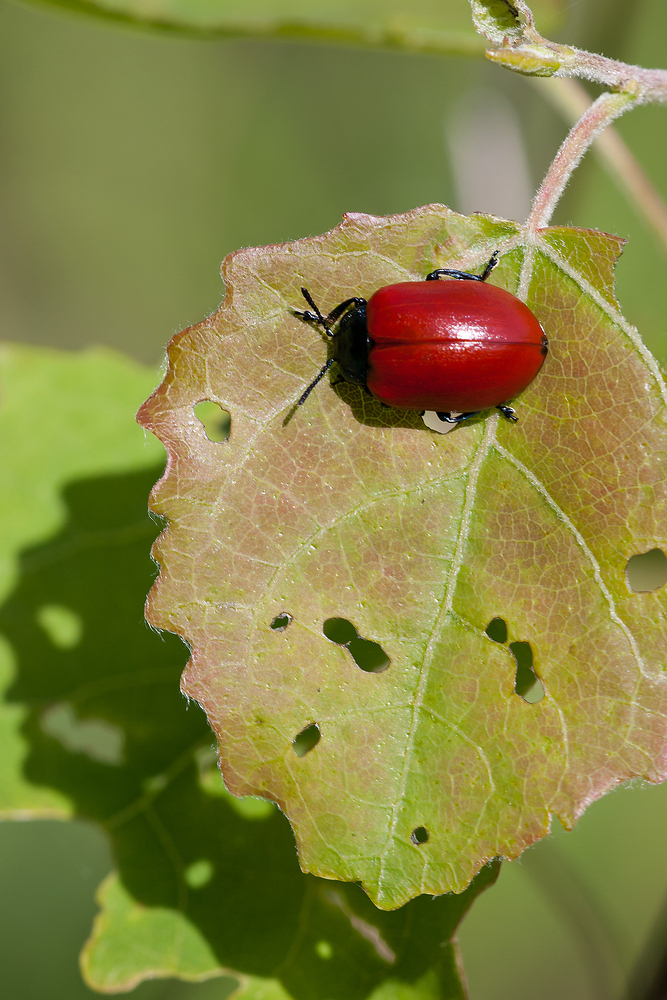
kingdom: Animalia
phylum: Arthropoda
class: Insecta
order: Coleoptera
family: Chrysomelidae
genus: Chrysomela
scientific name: Chrysomela populi
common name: Red poplar leaf beetle
